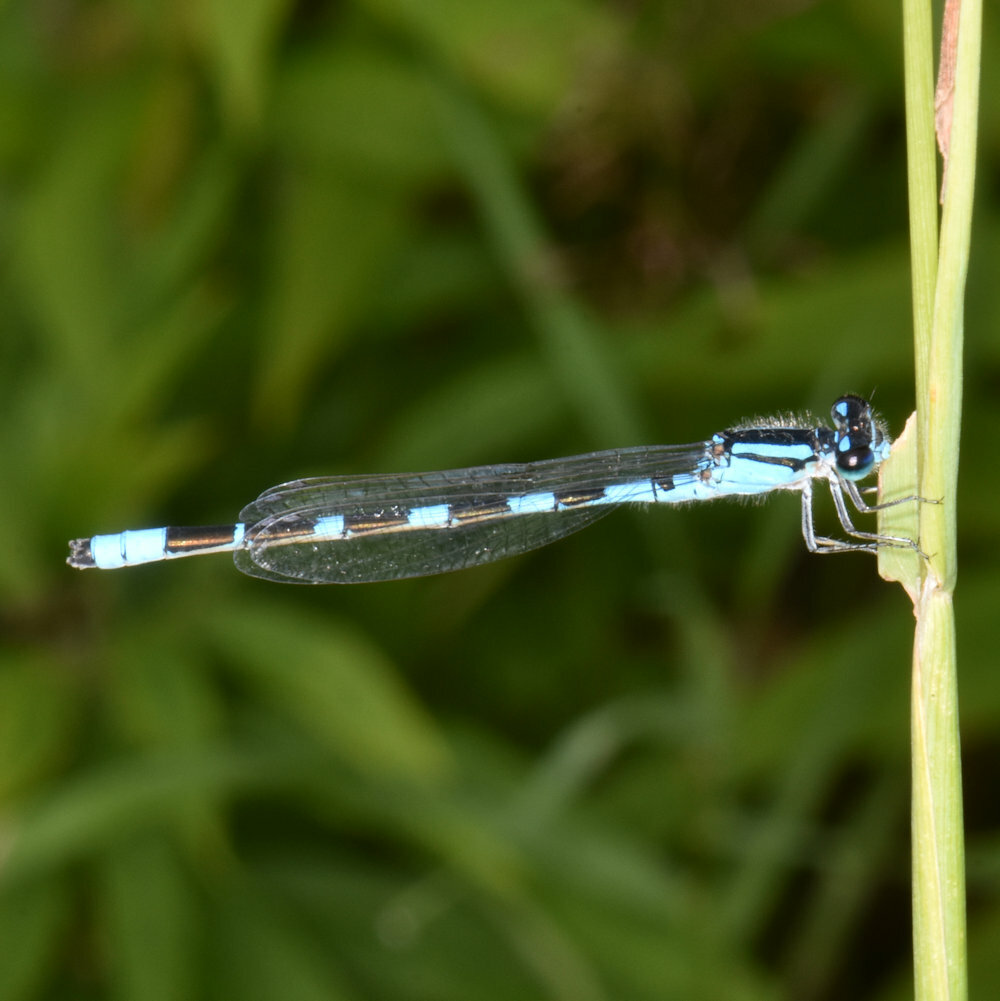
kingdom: Animalia
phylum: Arthropoda
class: Insecta
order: Odonata
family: Coenagrionidae
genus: Enallagma
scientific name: Enallagma carunculatum
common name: Tule bluet
